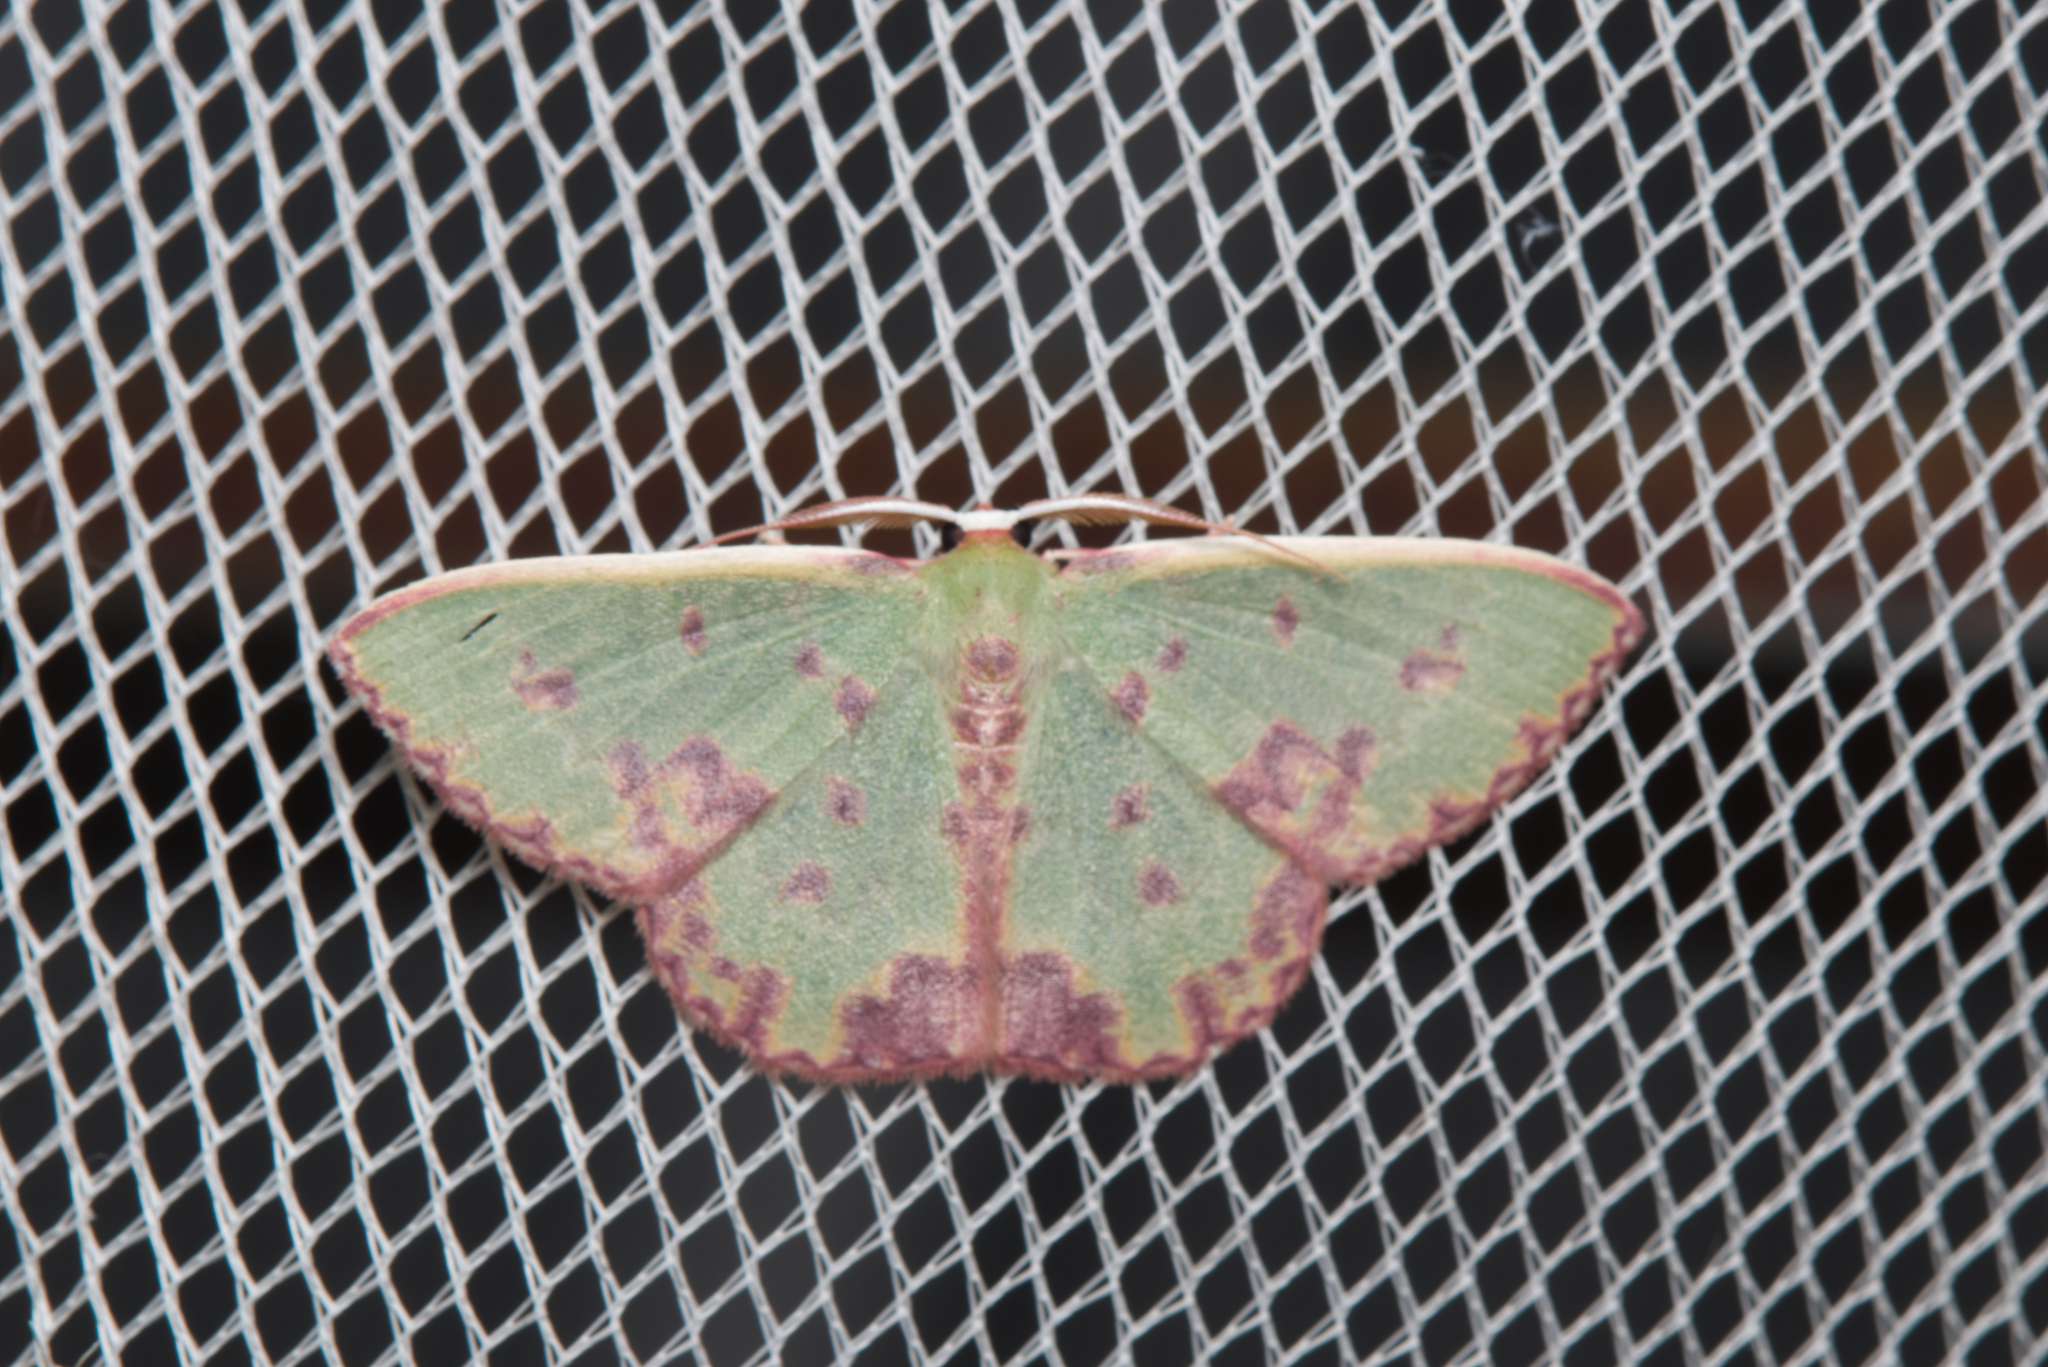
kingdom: Animalia
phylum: Arthropoda
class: Insecta
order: Lepidoptera
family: Geometridae
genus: Prasinocyma
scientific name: Prasinocyma rhodocosma
